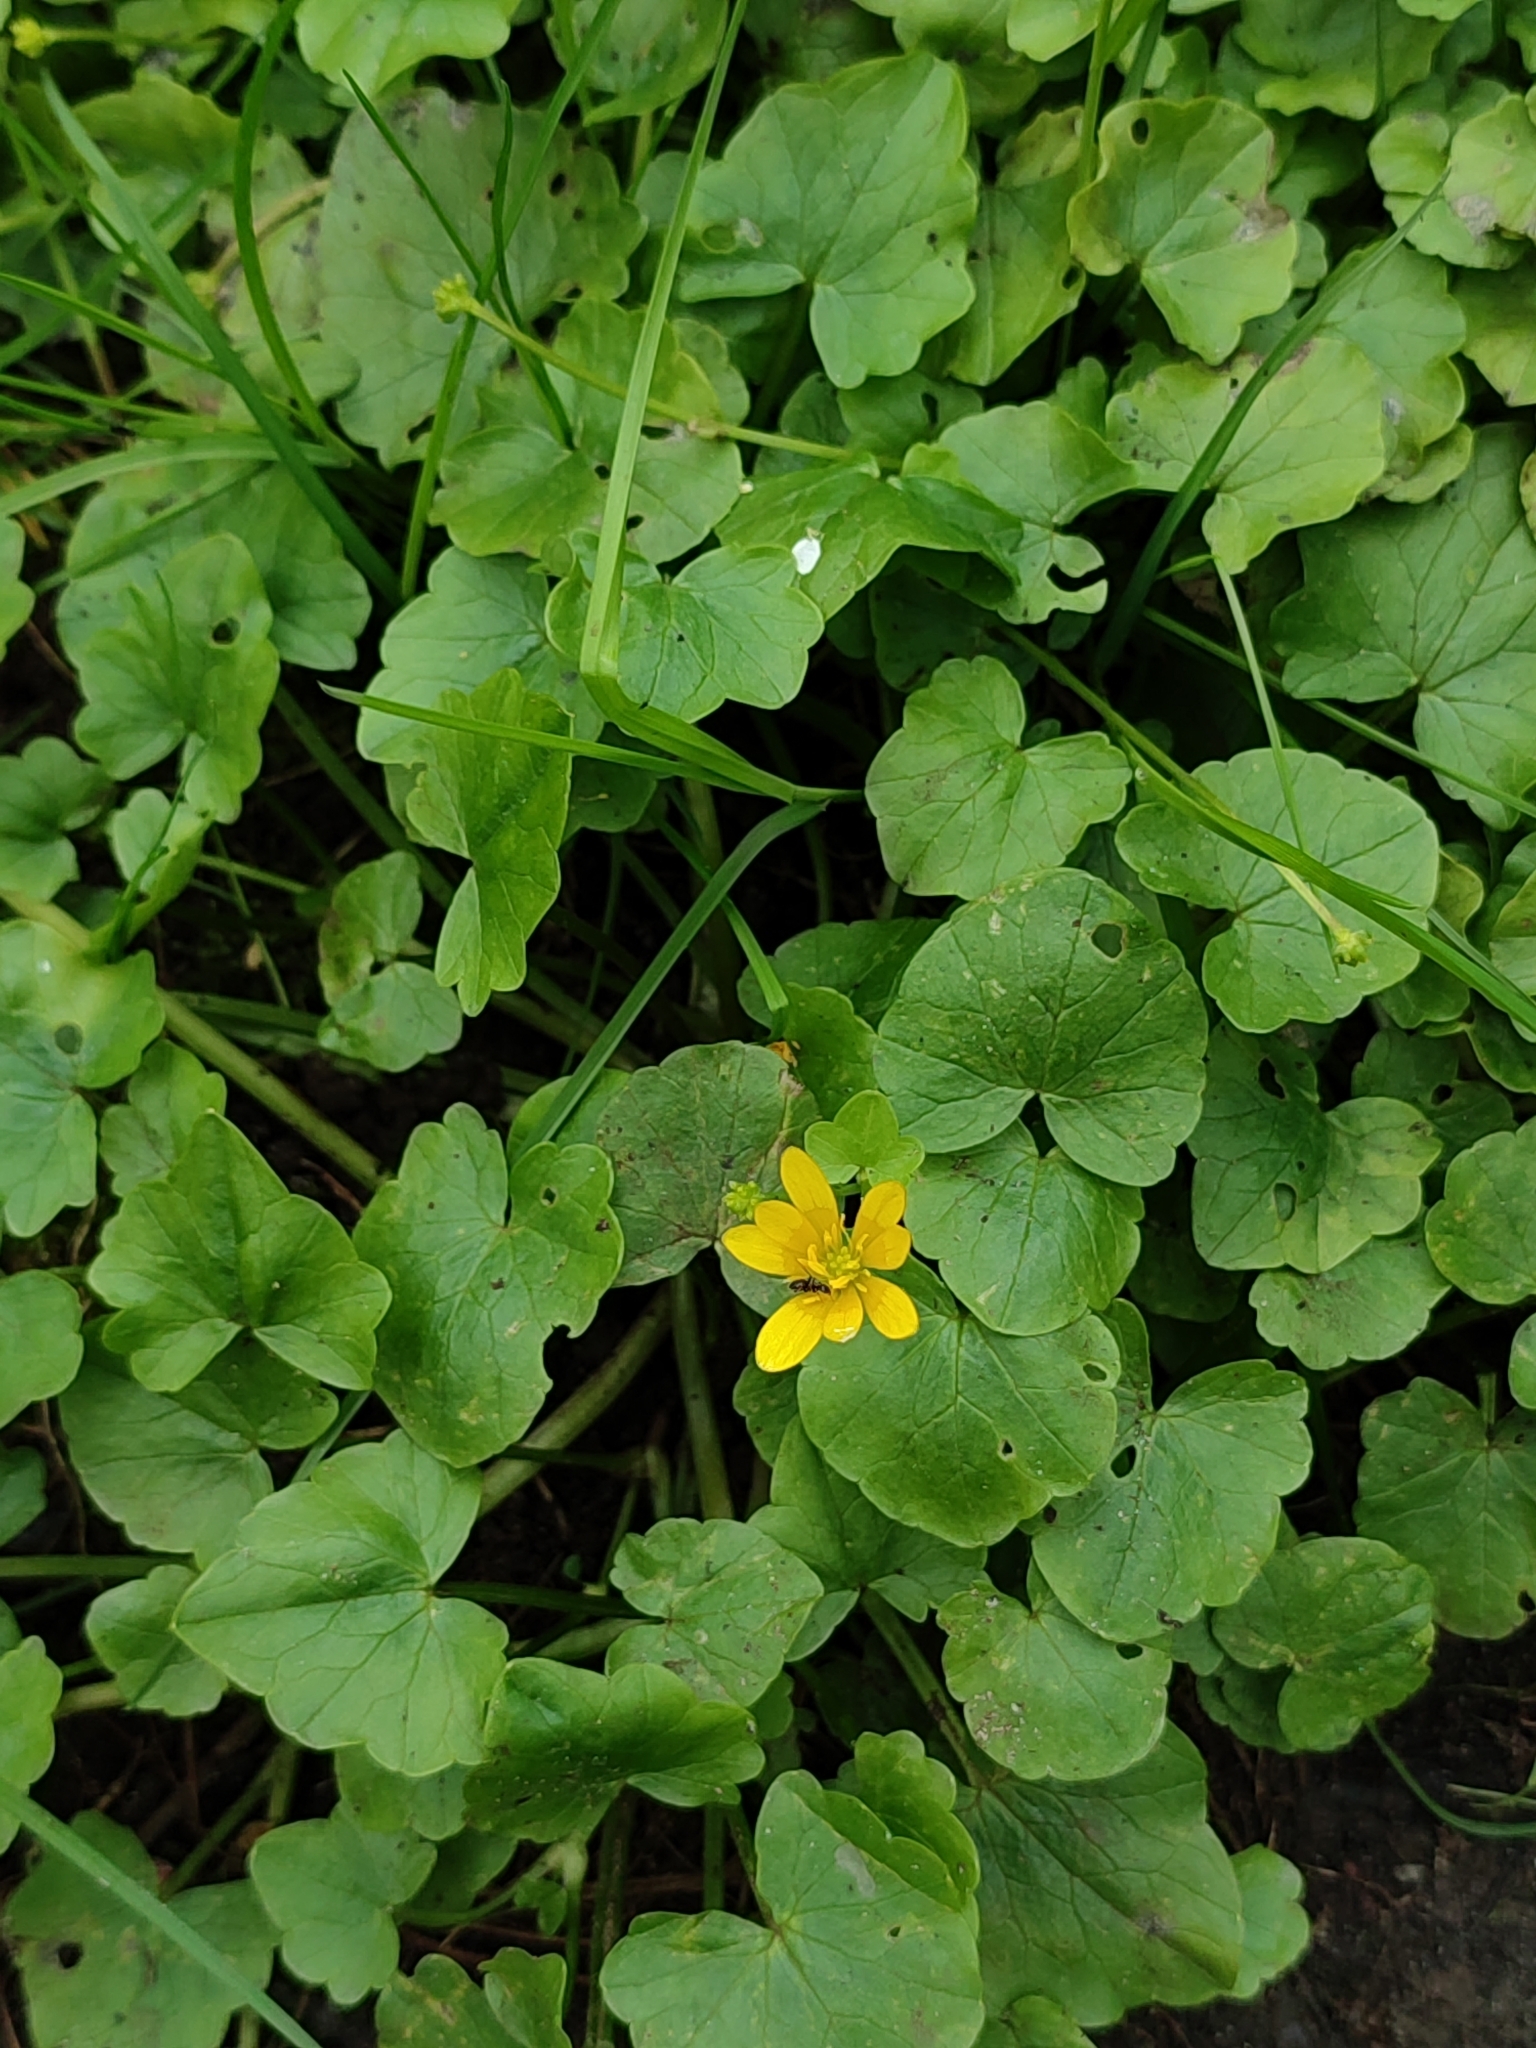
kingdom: Plantae
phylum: Tracheophyta
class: Magnoliopsida
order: Ranunculales
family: Ranunculaceae
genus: Ficaria
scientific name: Ficaria verna
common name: Lesser celandine
